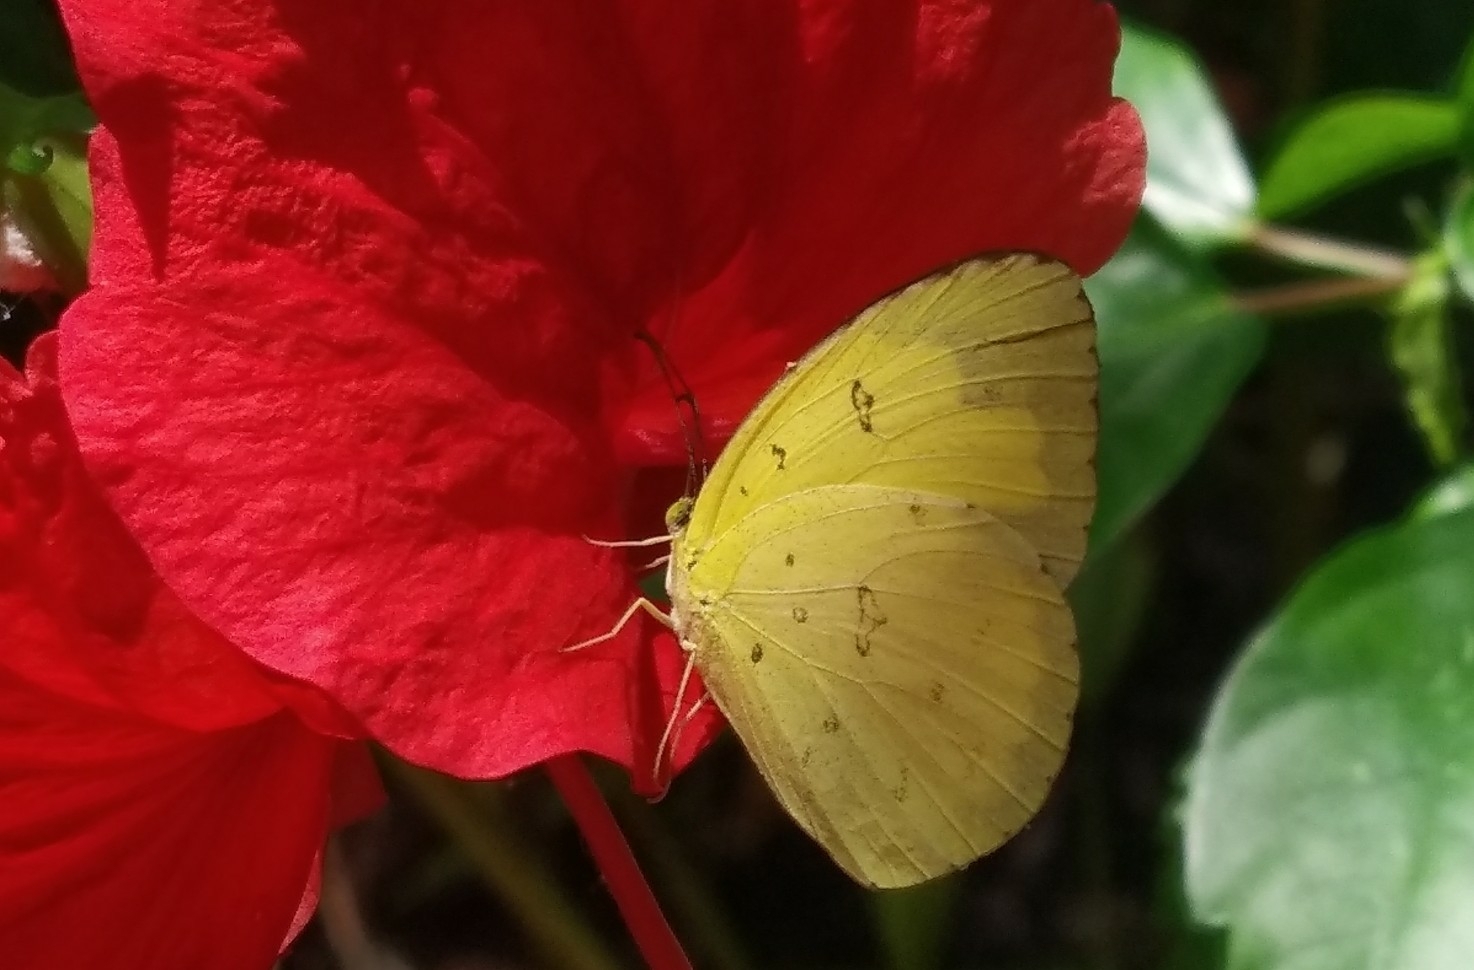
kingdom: Animalia
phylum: Arthropoda
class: Insecta
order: Lepidoptera
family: Pieridae
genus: Eurema
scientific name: Eurema hecabe
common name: Pale grass yellow
